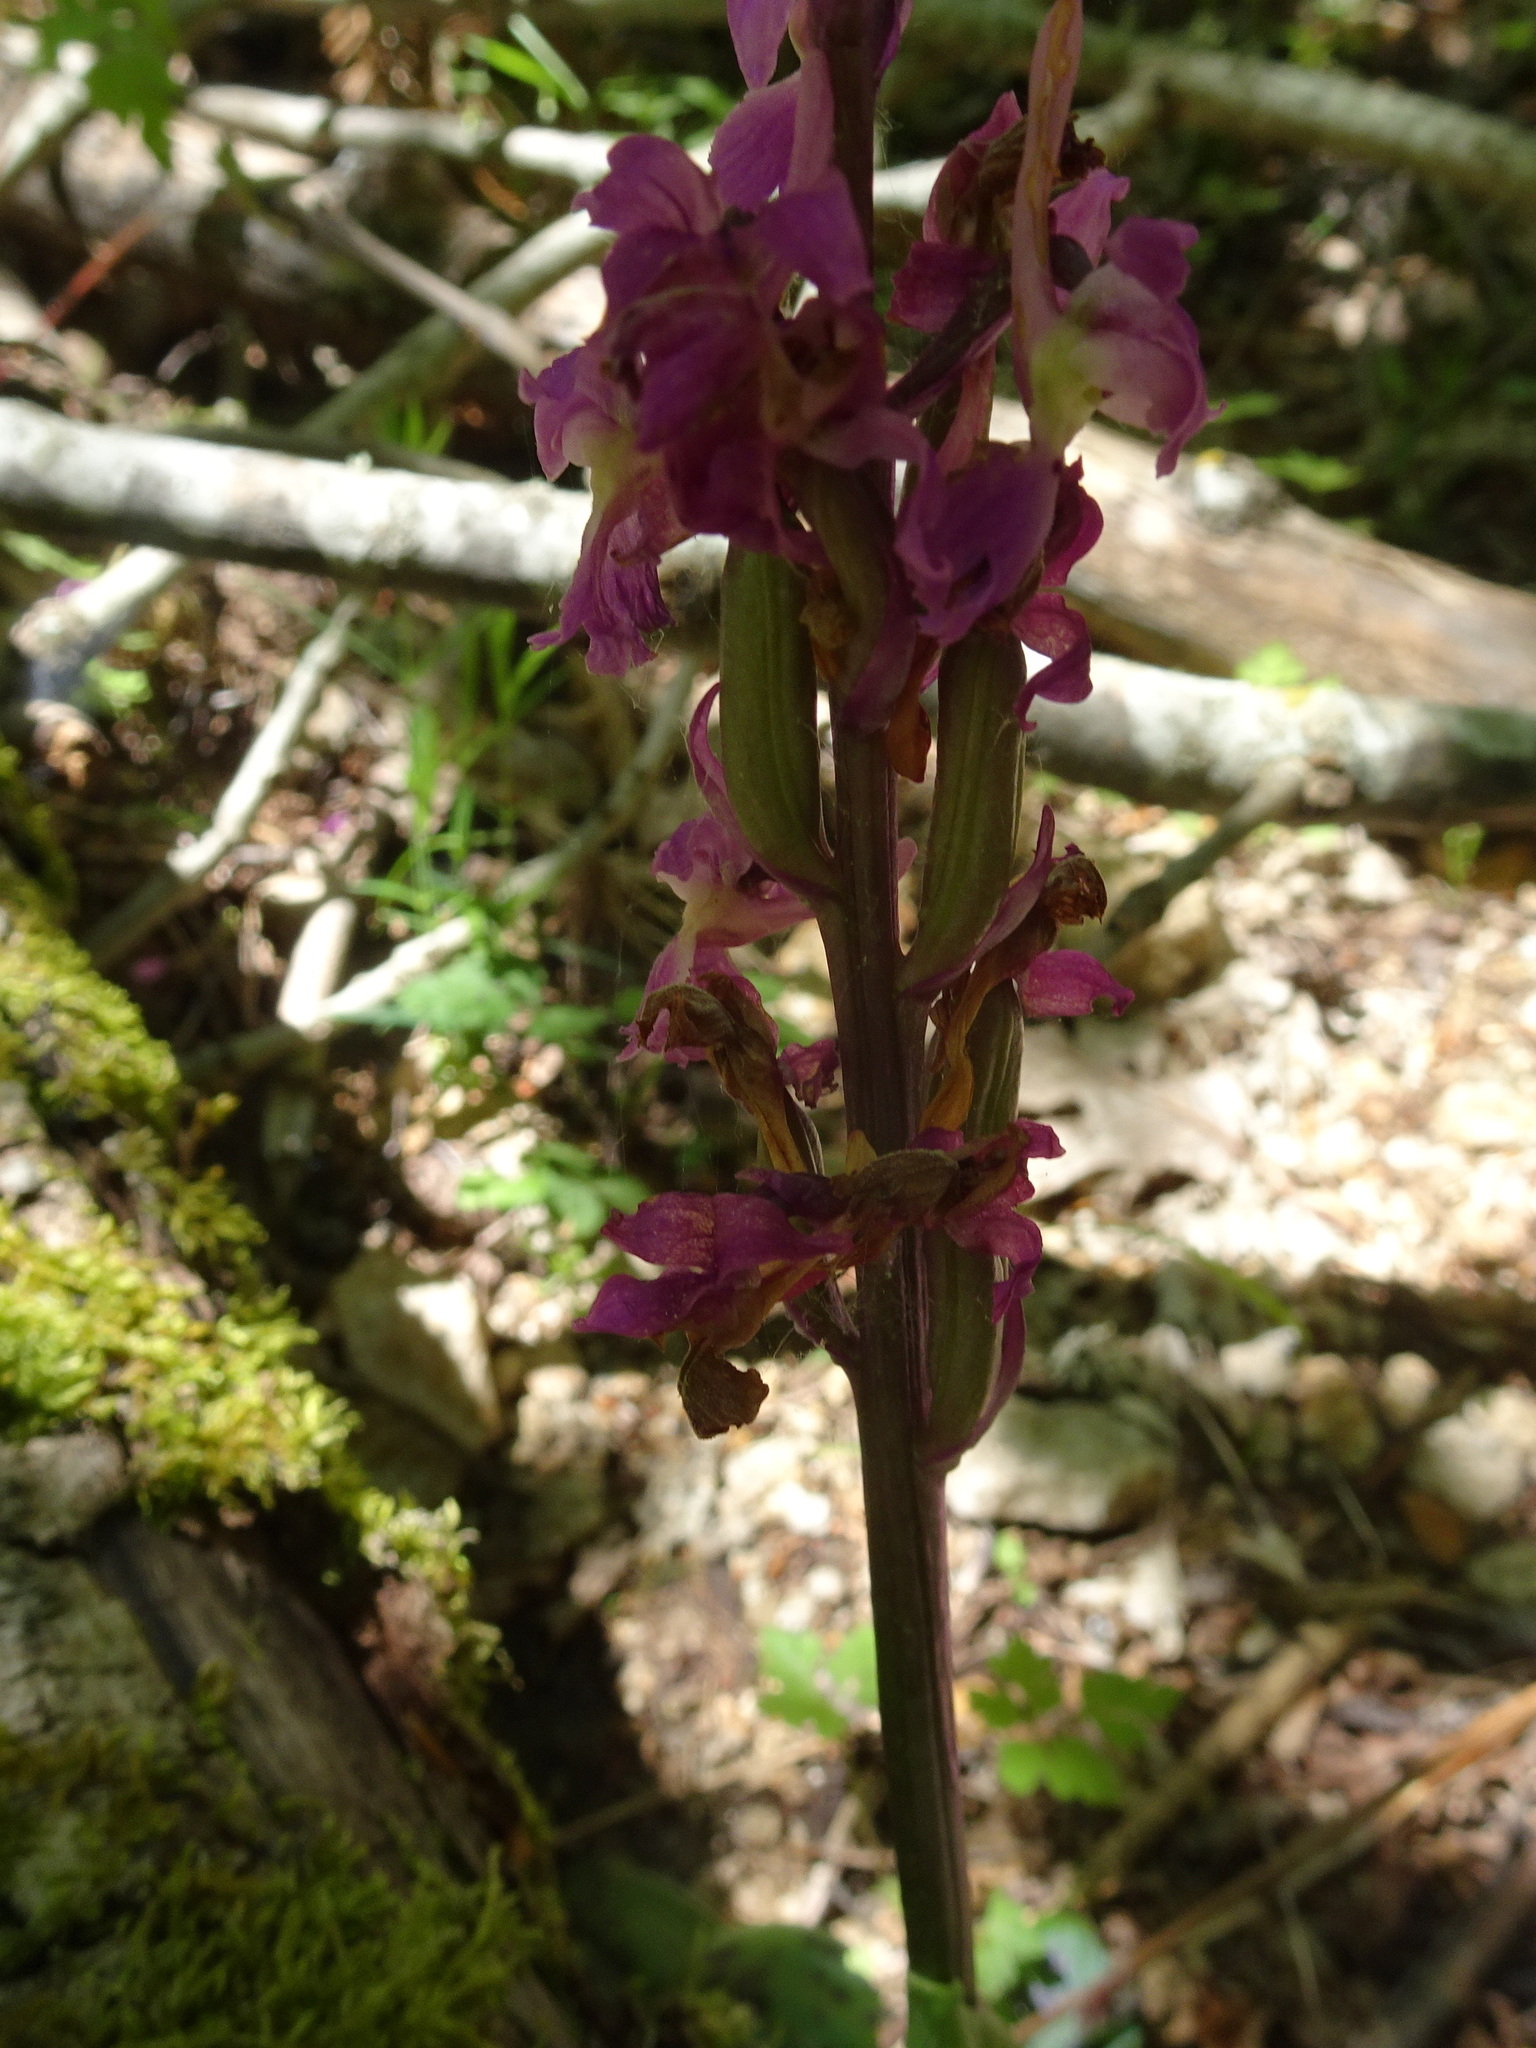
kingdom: Plantae
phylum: Tracheophyta
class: Liliopsida
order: Asparagales
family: Orchidaceae
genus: Orchis
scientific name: Orchis mascula
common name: Early-purple orchid
